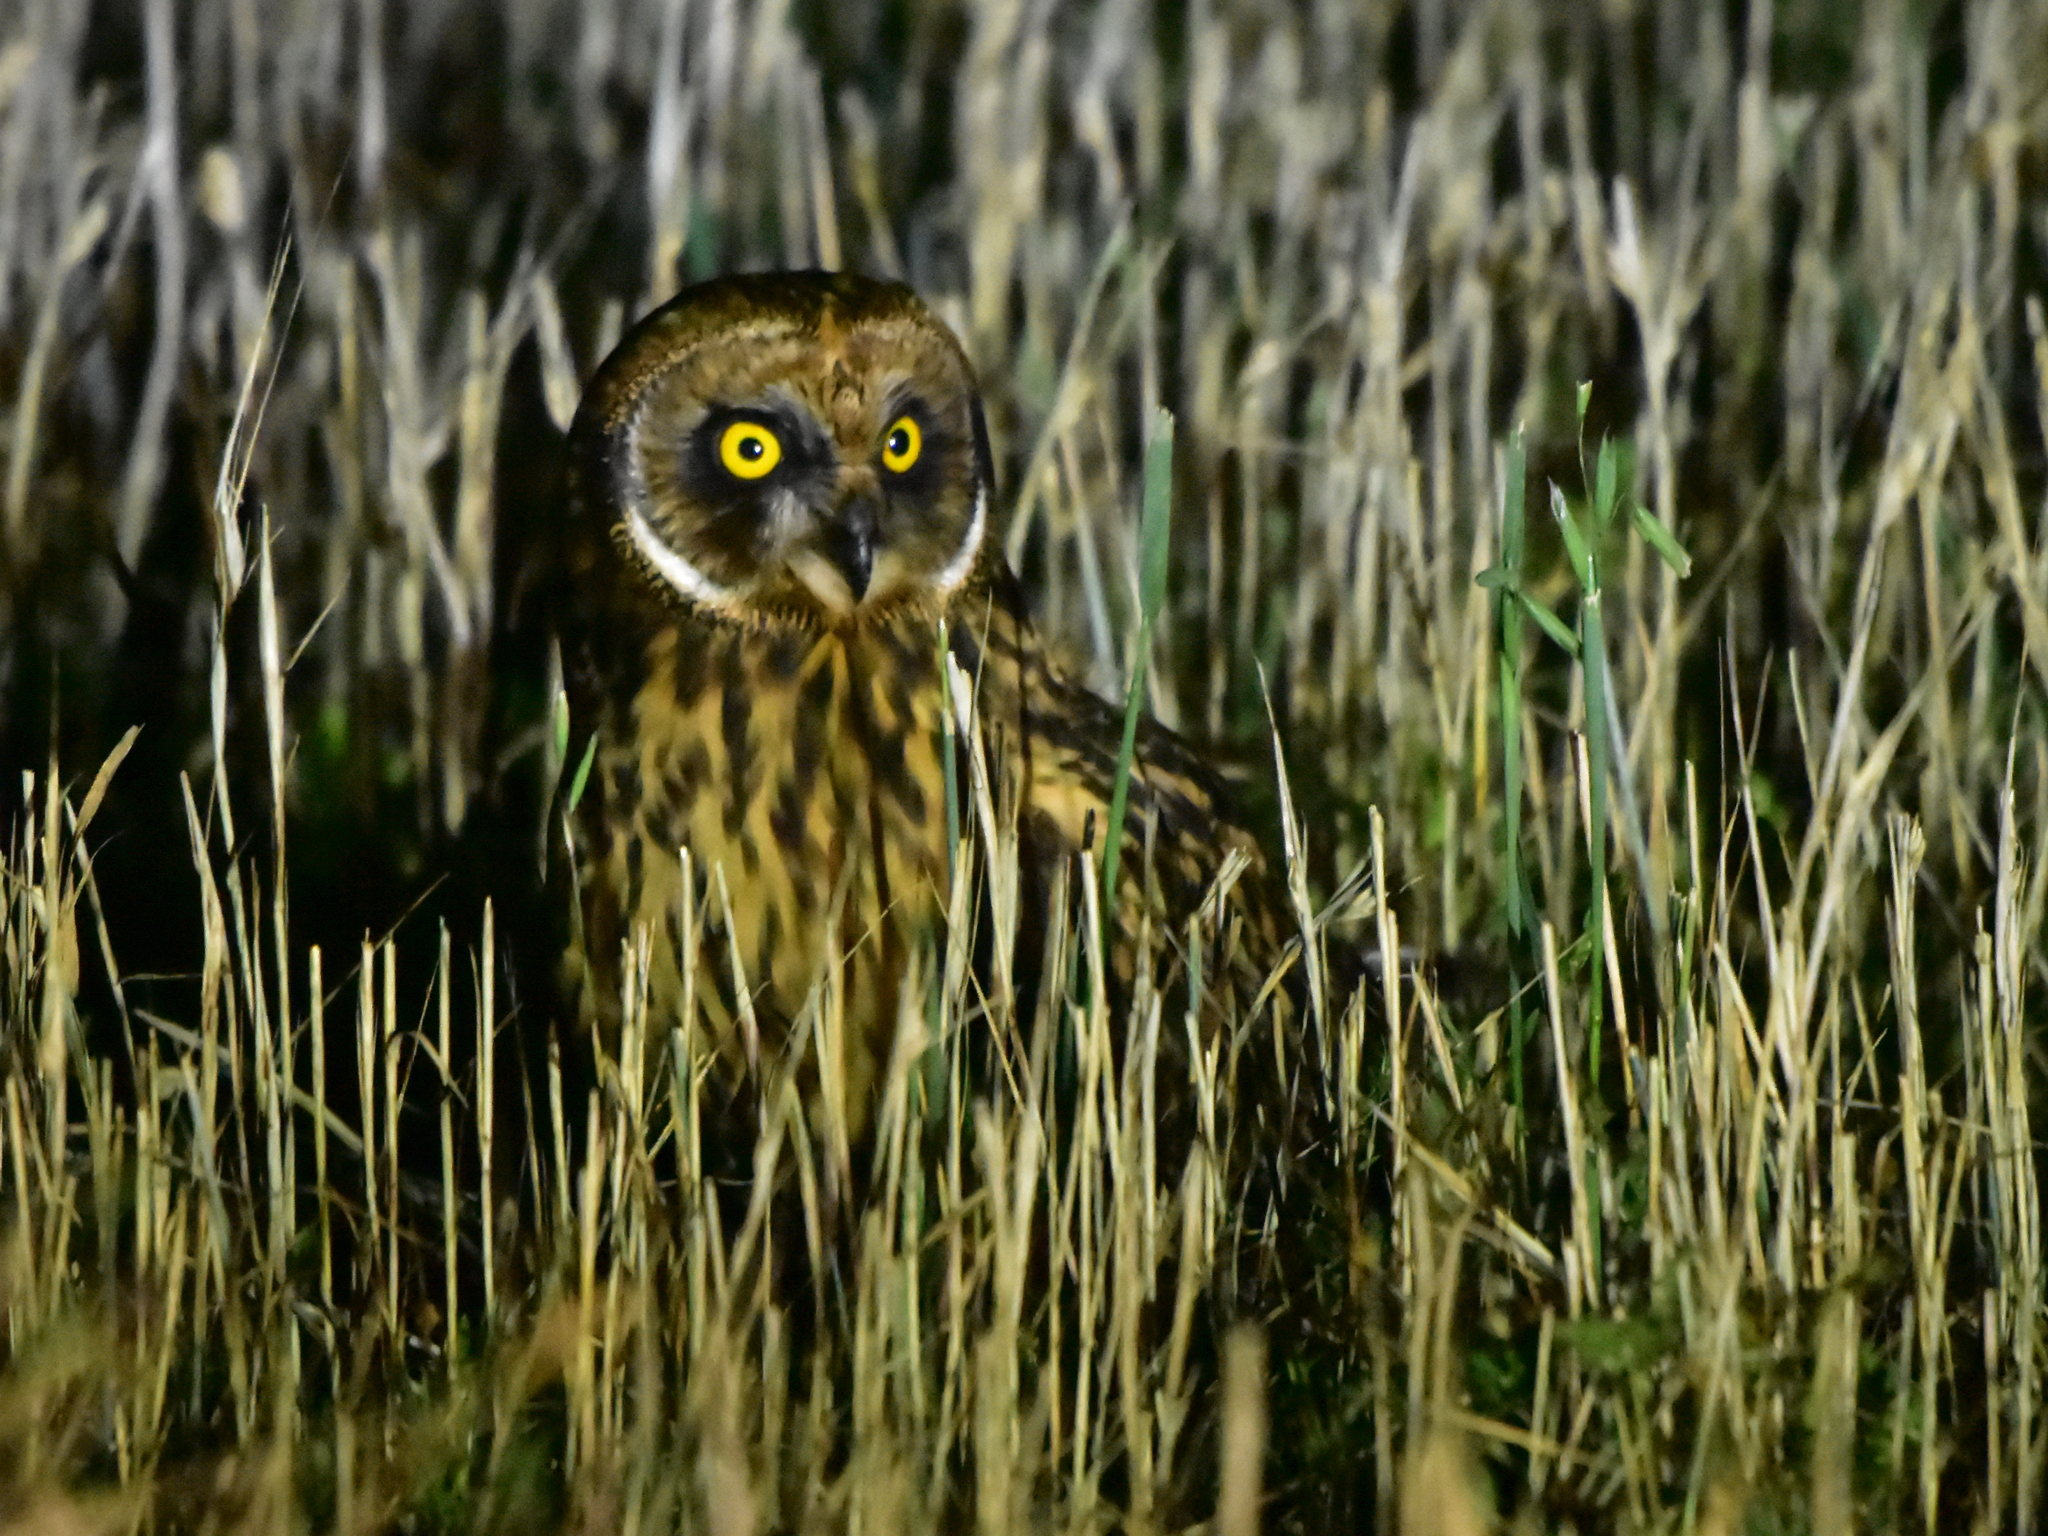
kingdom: Animalia
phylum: Chordata
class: Aves
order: Strigiformes
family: Strigidae
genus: Asio
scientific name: Asio flammeus
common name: Short-eared owl
